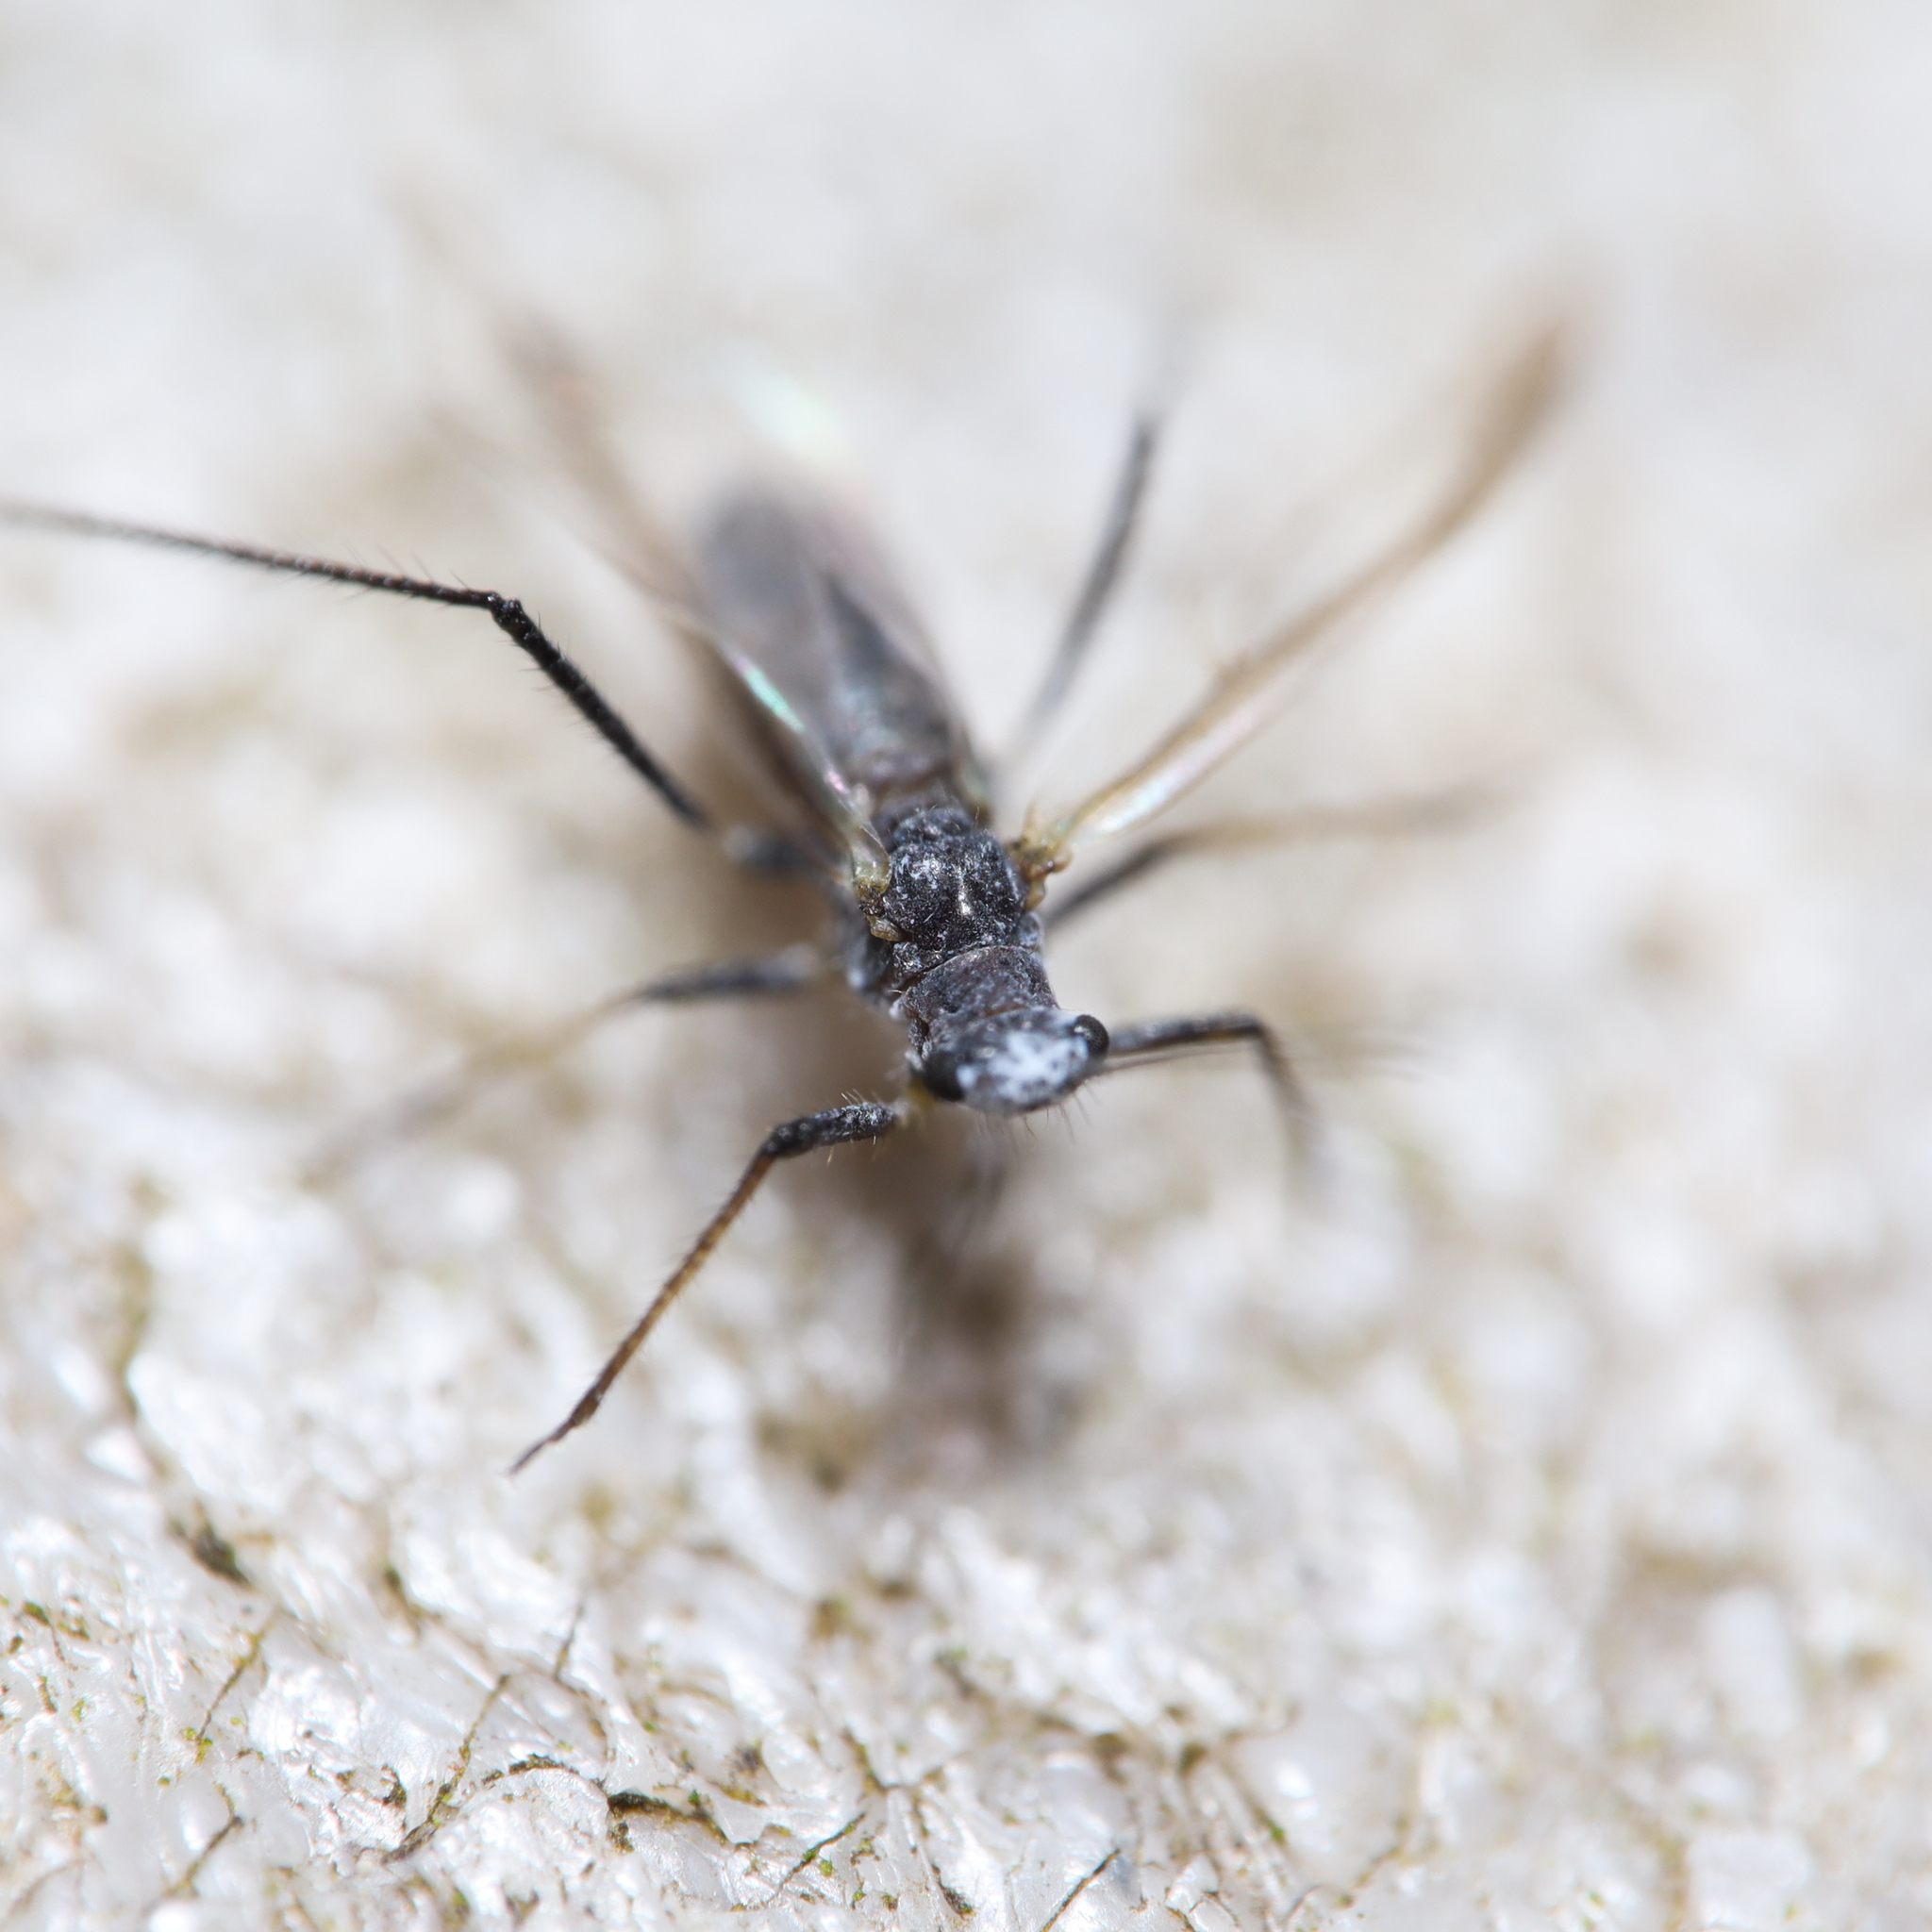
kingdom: Animalia
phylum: Arthropoda
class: Insecta
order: Hemiptera
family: Aphididae
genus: Eulachnus
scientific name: Eulachnus rileyi
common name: Active gray pine needle aphid
